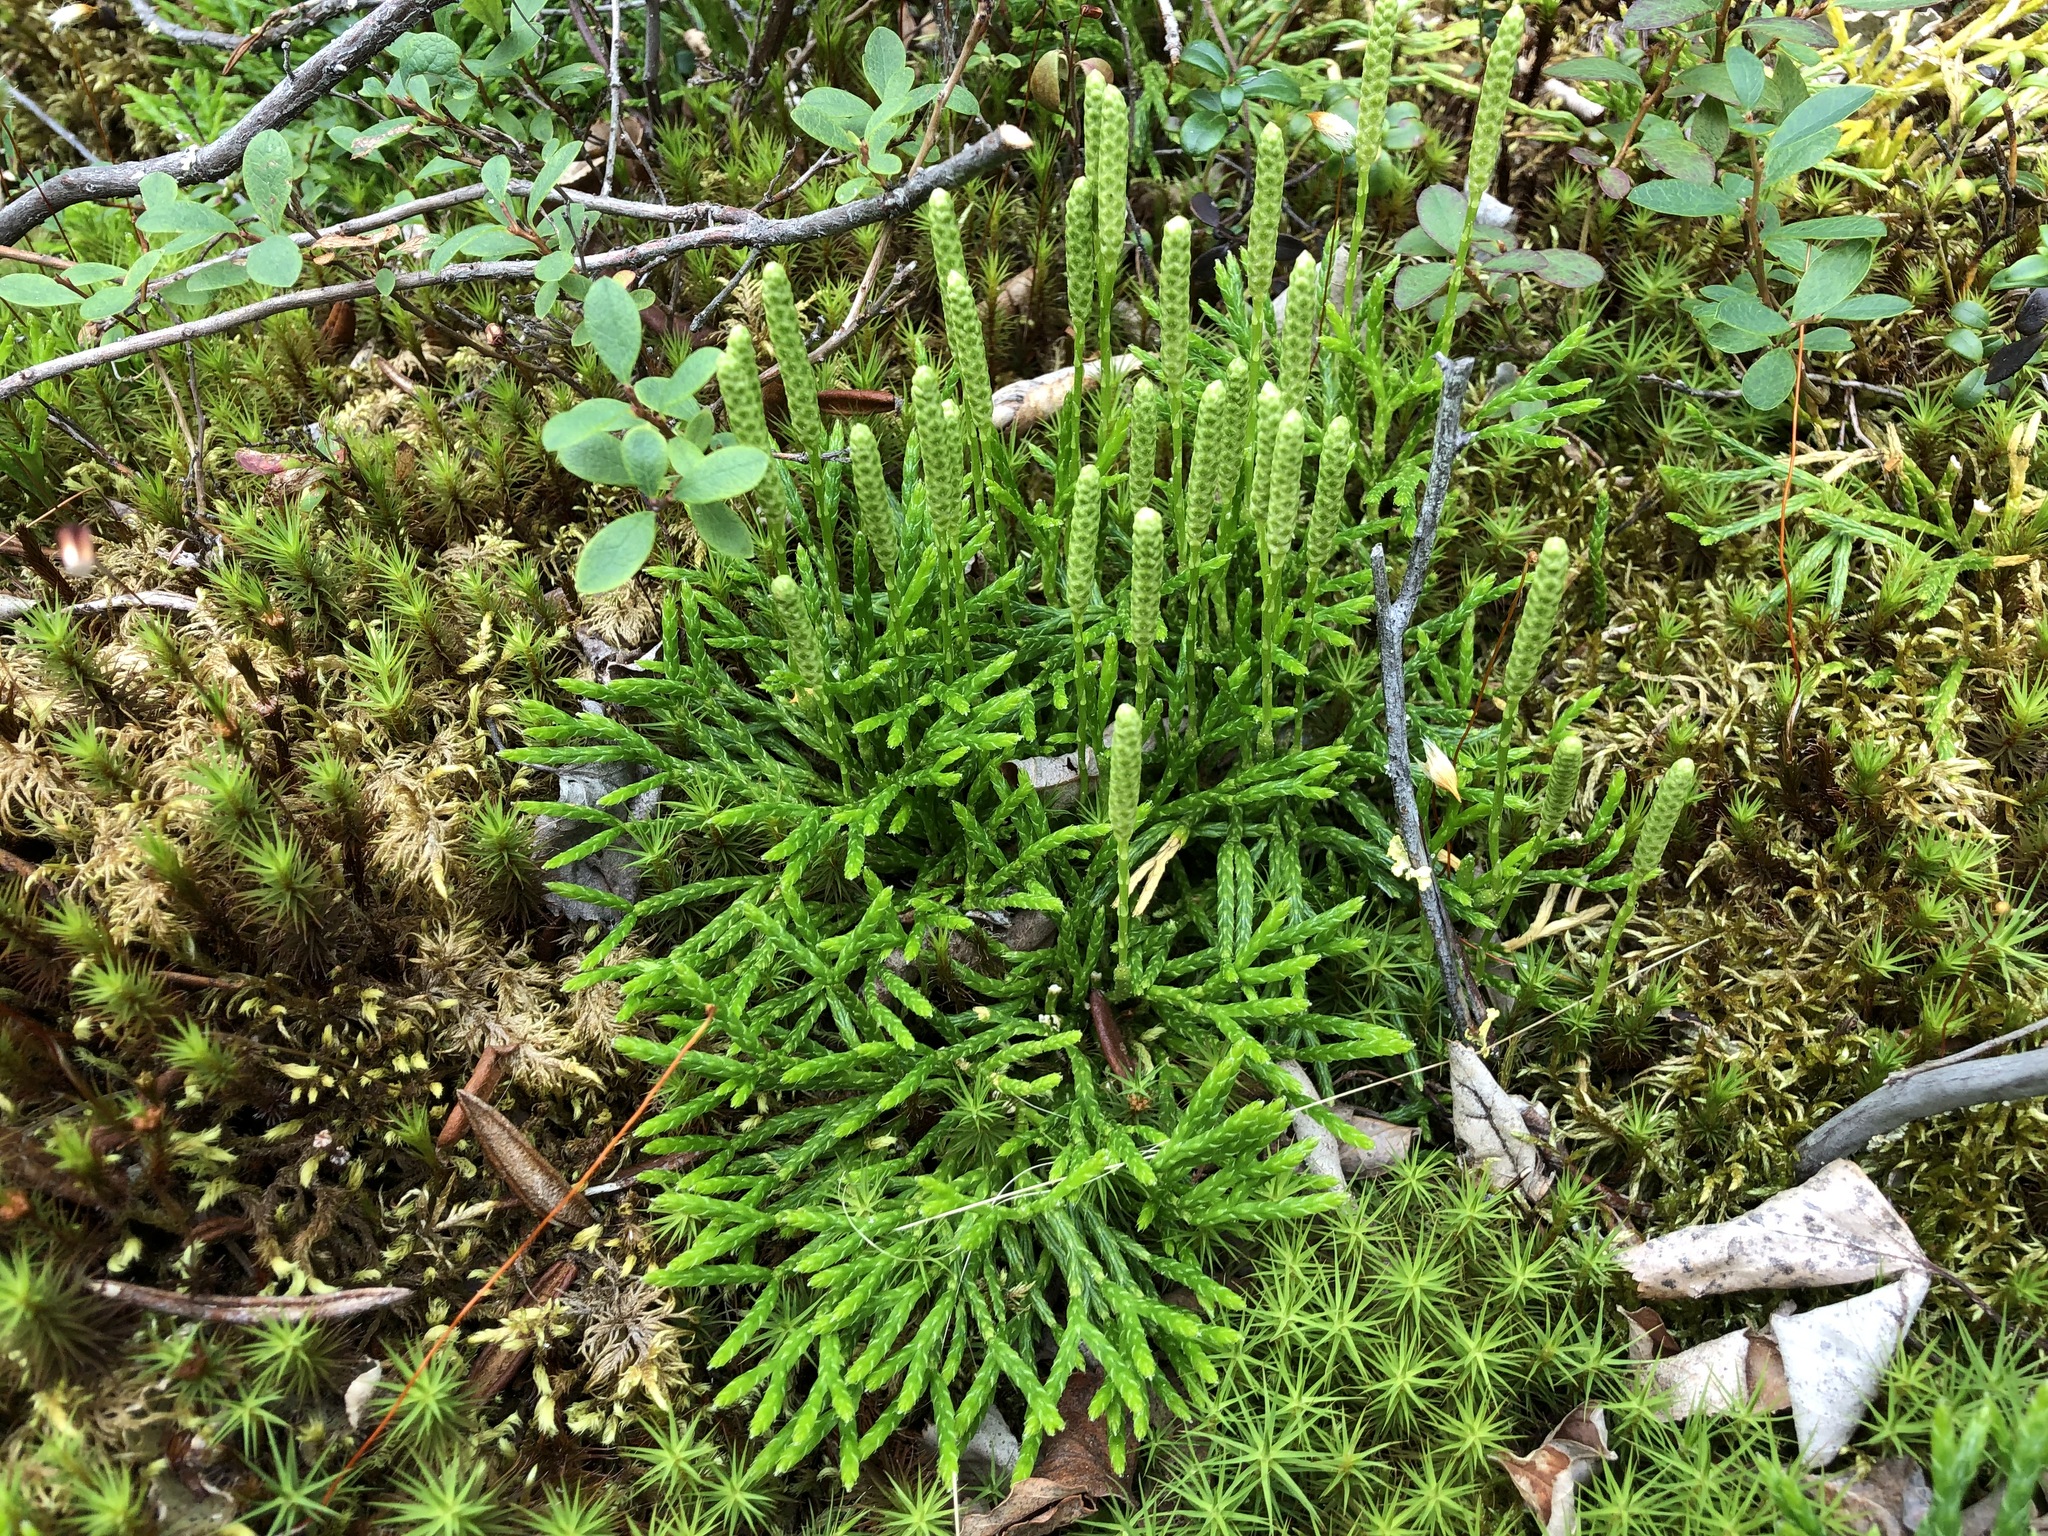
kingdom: Plantae
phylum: Tracheophyta
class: Lycopodiopsida
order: Lycopodiales
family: Lycopodiaceae
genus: Diphasiastrum
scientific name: Diphasiastrum complanatum
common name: Northern running-pine
